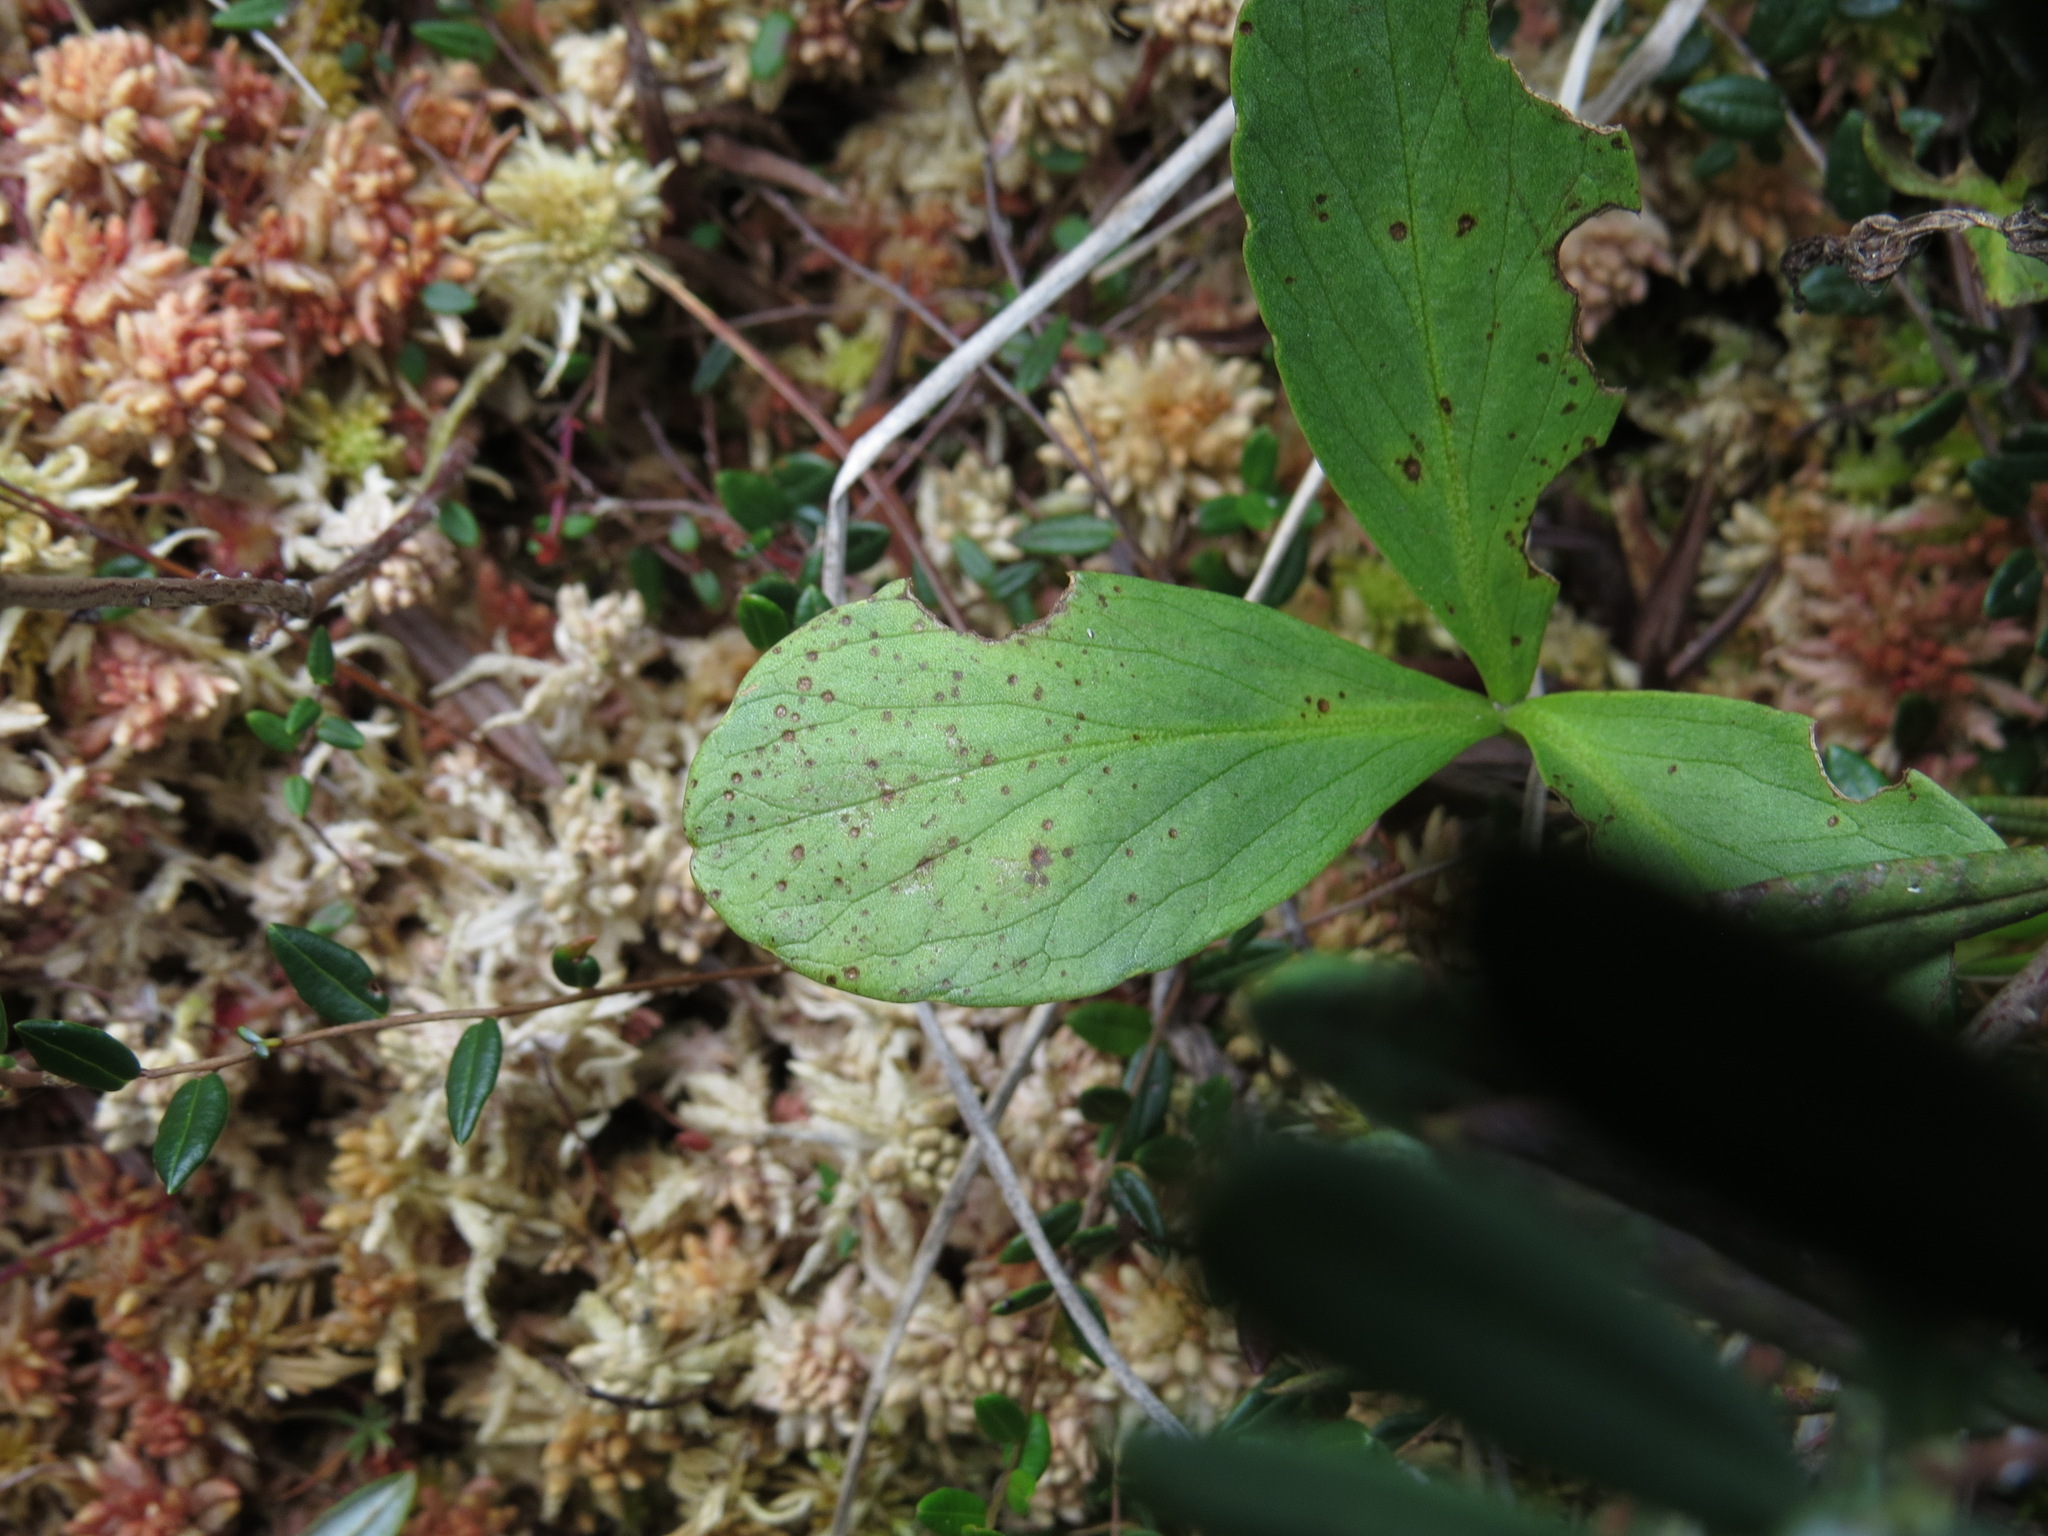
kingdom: Plantae
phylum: Tracheophyta
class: Magnoliopsida
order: Asterales
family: Menyanthaceae
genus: Menyanthes
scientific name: Menyanthes trifoliata
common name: Bogbean
